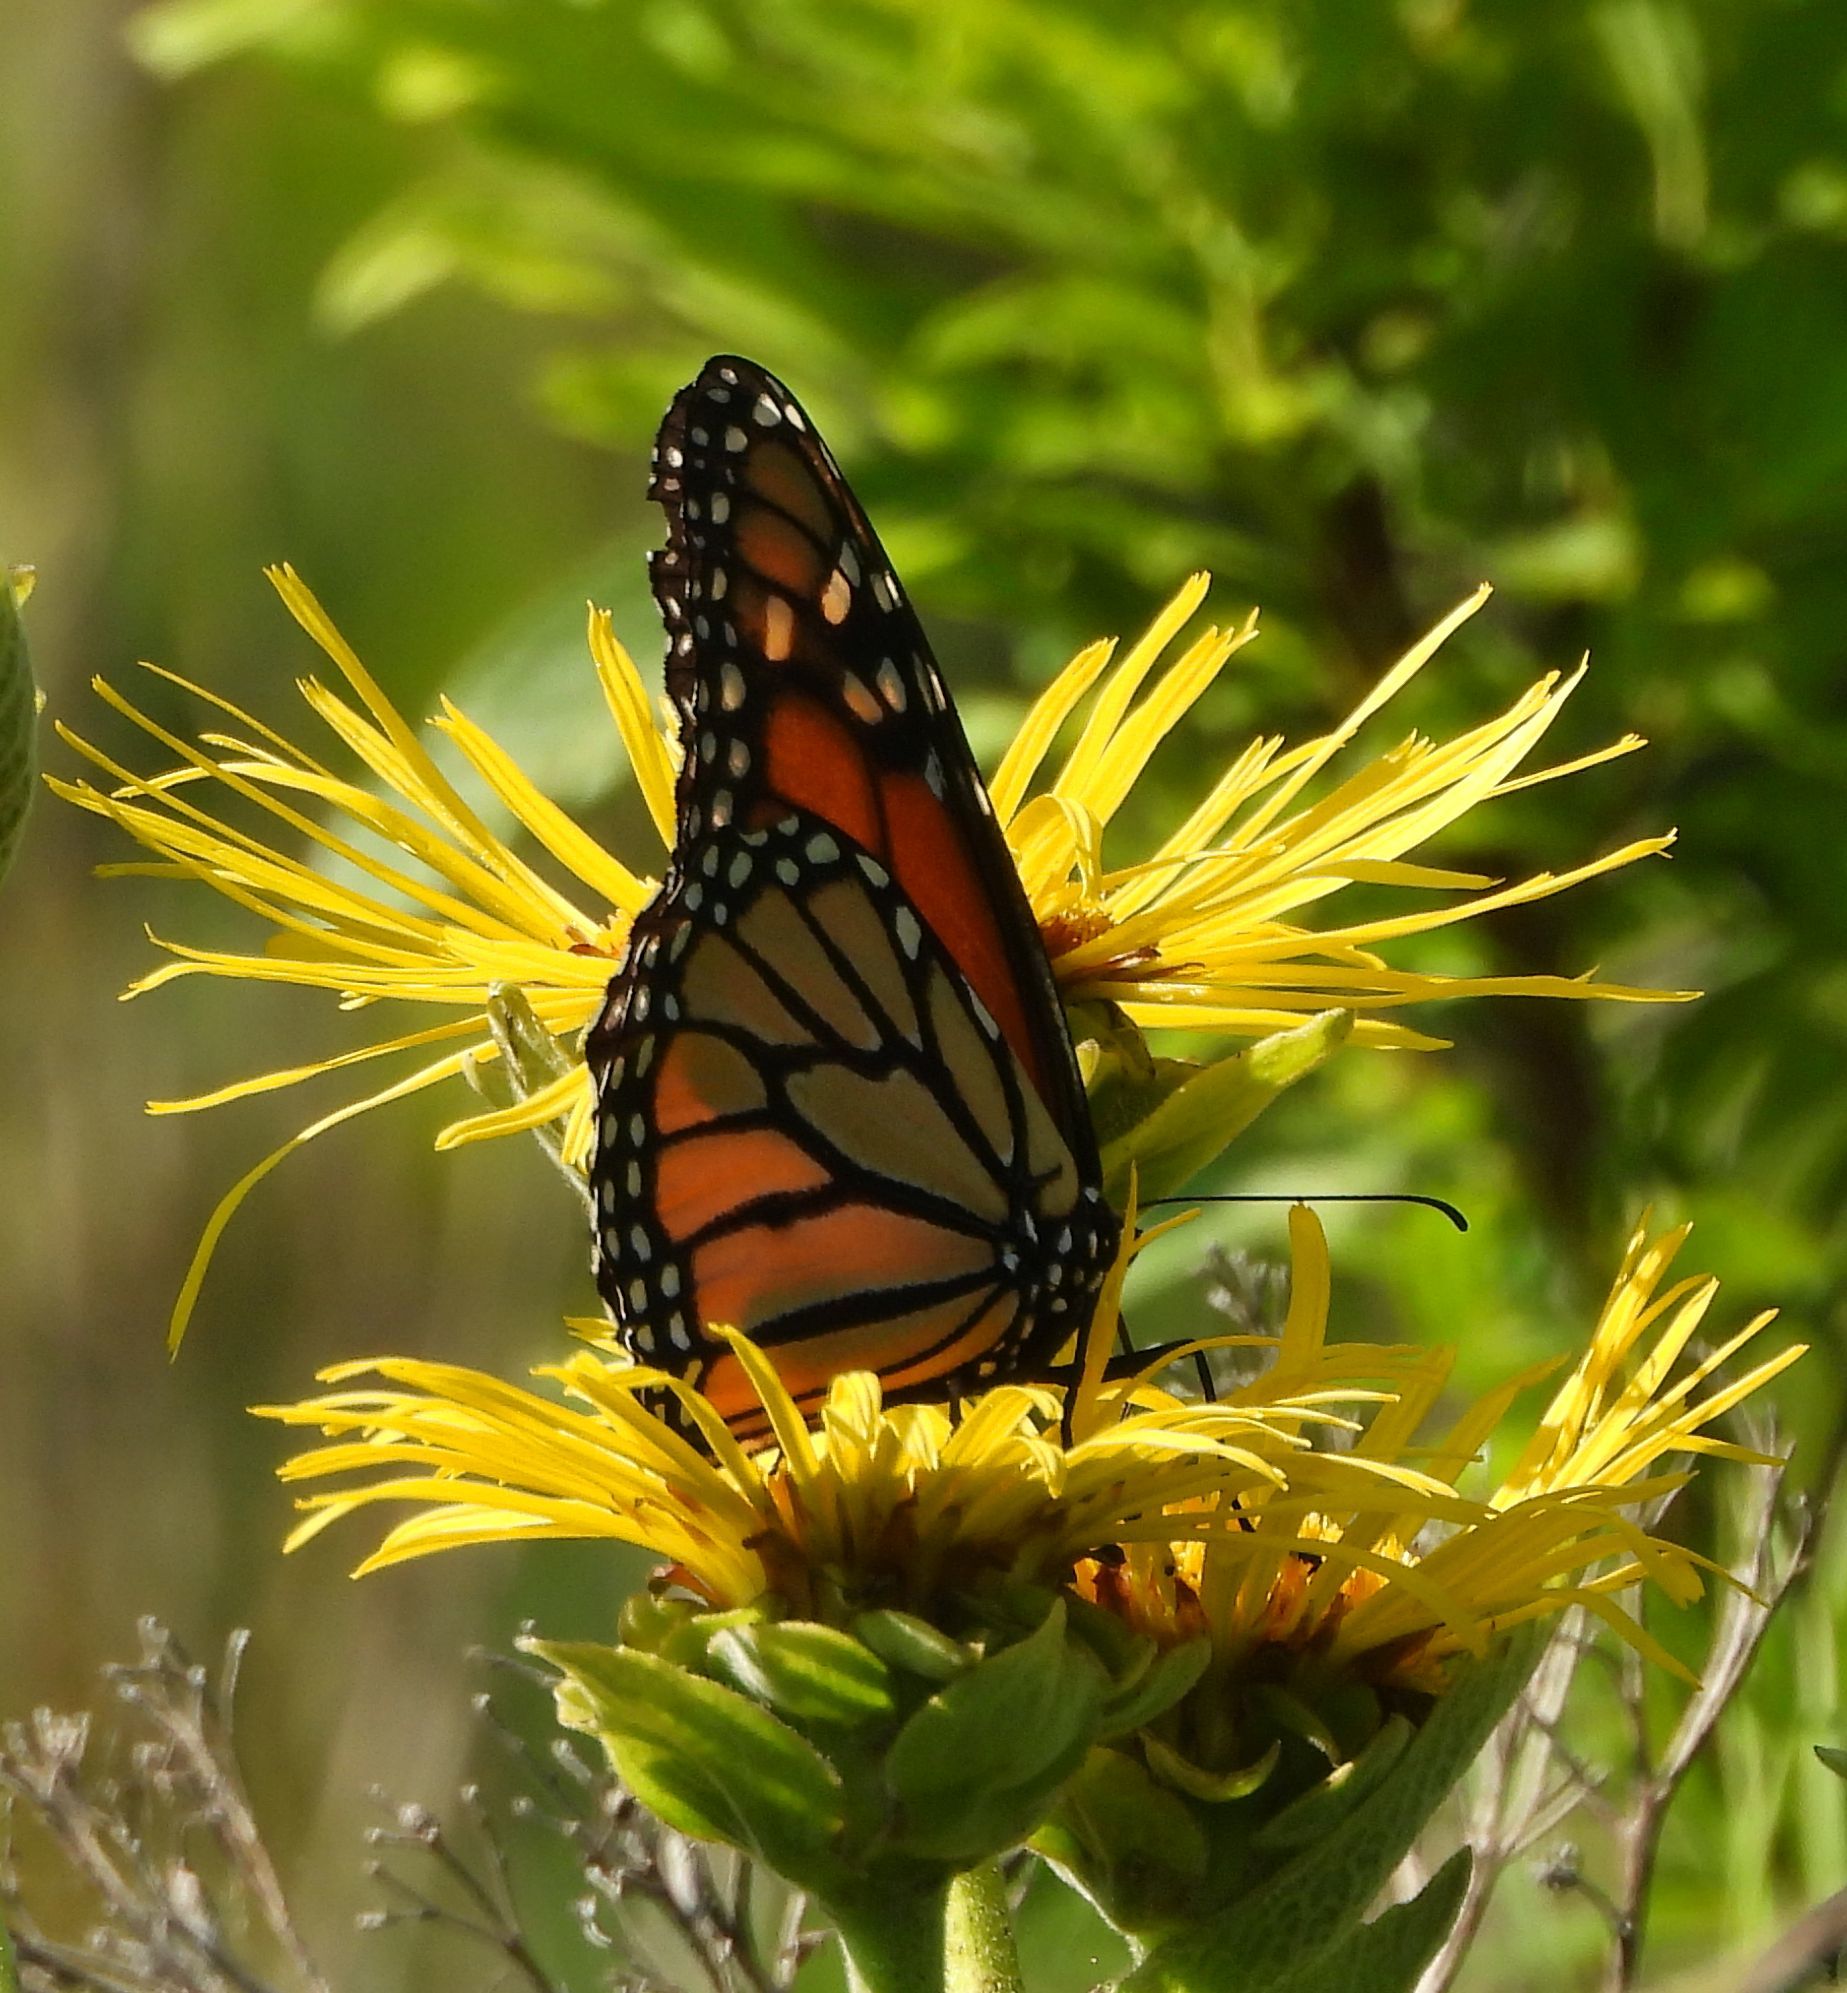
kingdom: Animalia
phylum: Arthropoda
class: Insecta
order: Lepidoptera
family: Nymphalidae
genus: Danaus
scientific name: Danaus plexippus
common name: Monarch
